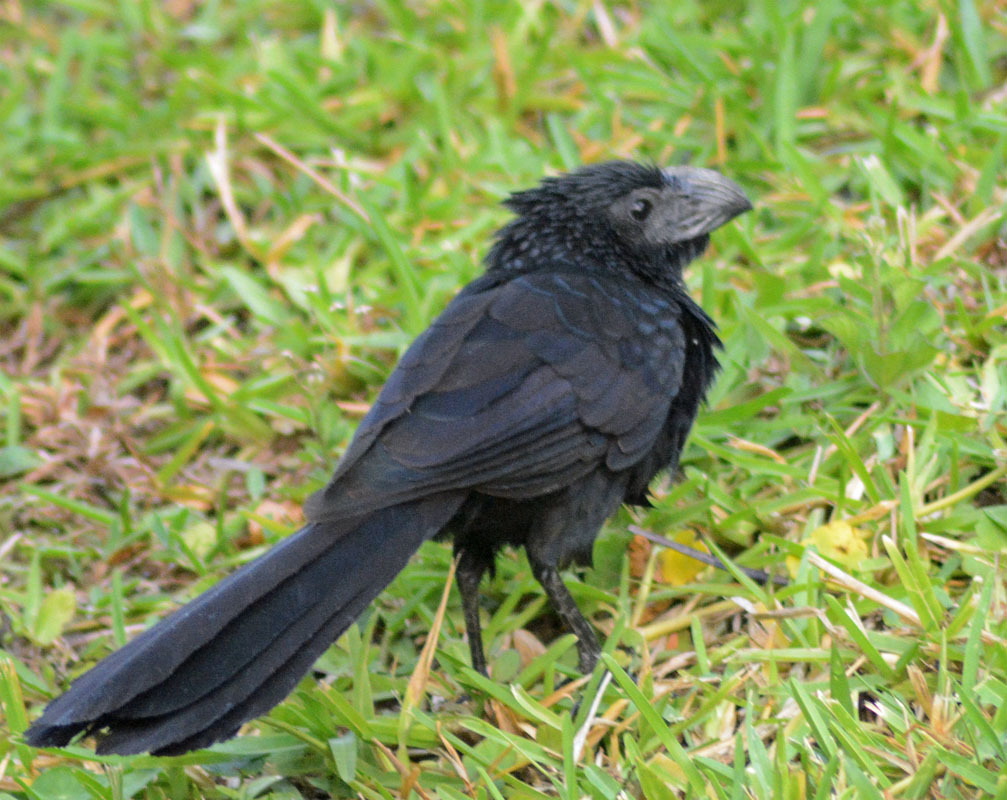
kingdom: Animalia
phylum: Chordata
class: Aves
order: Cuculiformes
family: Cuculidae
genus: Crotophaga
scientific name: Crotophaga sulcirostris
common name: Groove-billed ani
